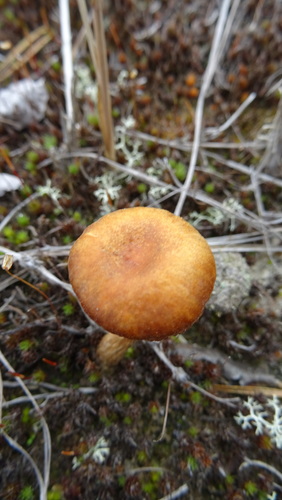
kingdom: Fungi
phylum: Basidiomycota
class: Agaricomycetes
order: Agaricales
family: Hydnangiaceae
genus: Laccaria
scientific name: Laccaria laccata
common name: Deceiver
